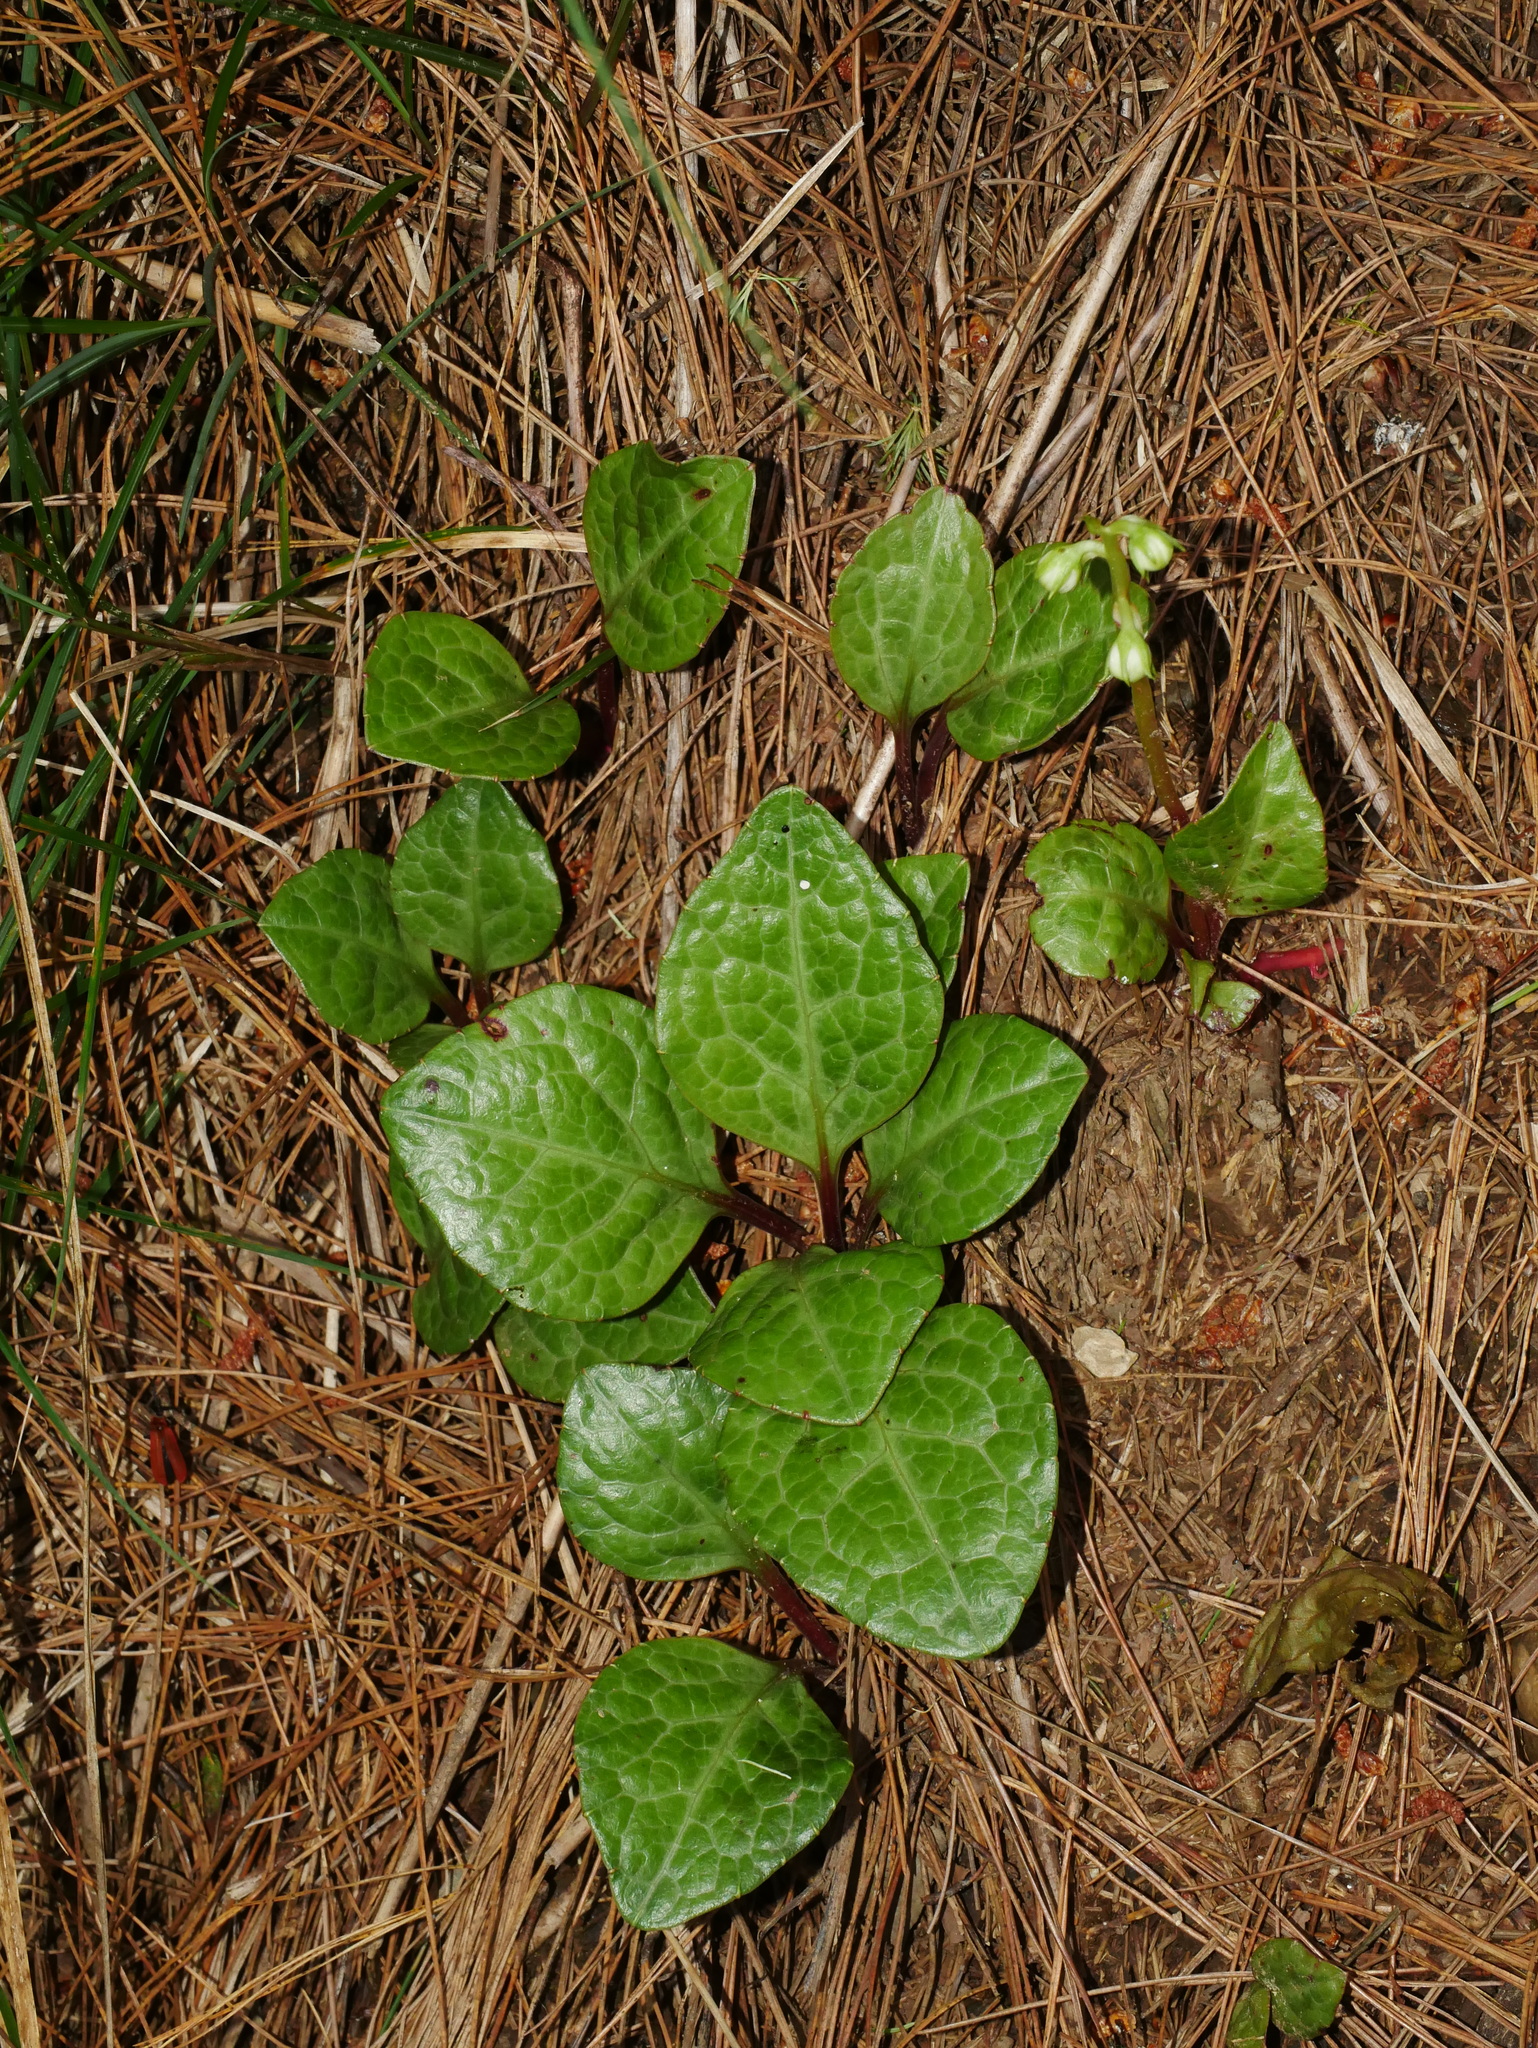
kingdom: Plantae
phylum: Tracheophyta
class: Magnoliopsida
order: Ericales
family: Ericaceae
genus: Pyrola
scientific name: Pyrola japonica
